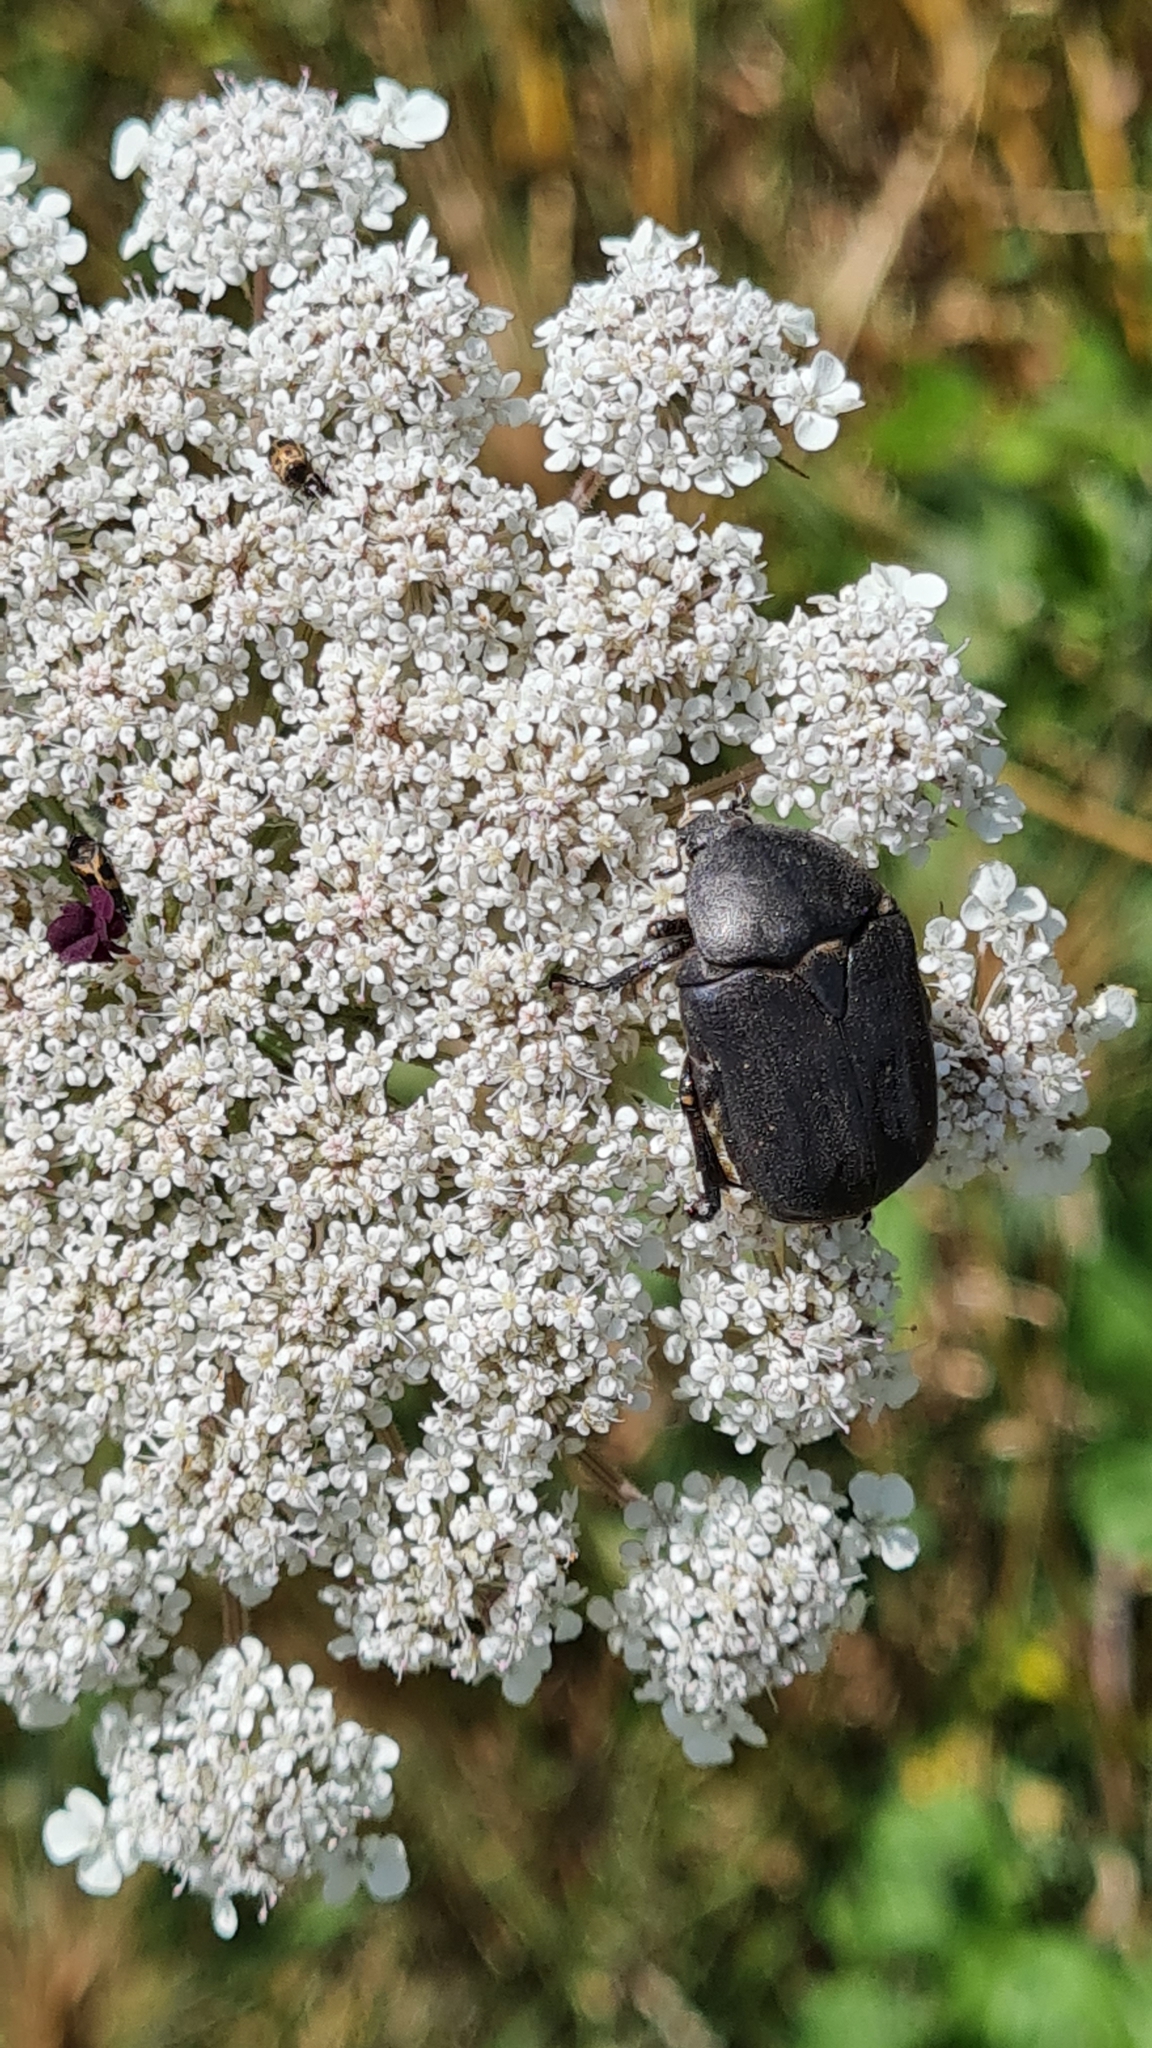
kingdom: Animalia
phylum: Arthropoda
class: Insecta
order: Coleoptera
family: Scarabaeidae
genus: Protaetia
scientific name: Protaetia morio
